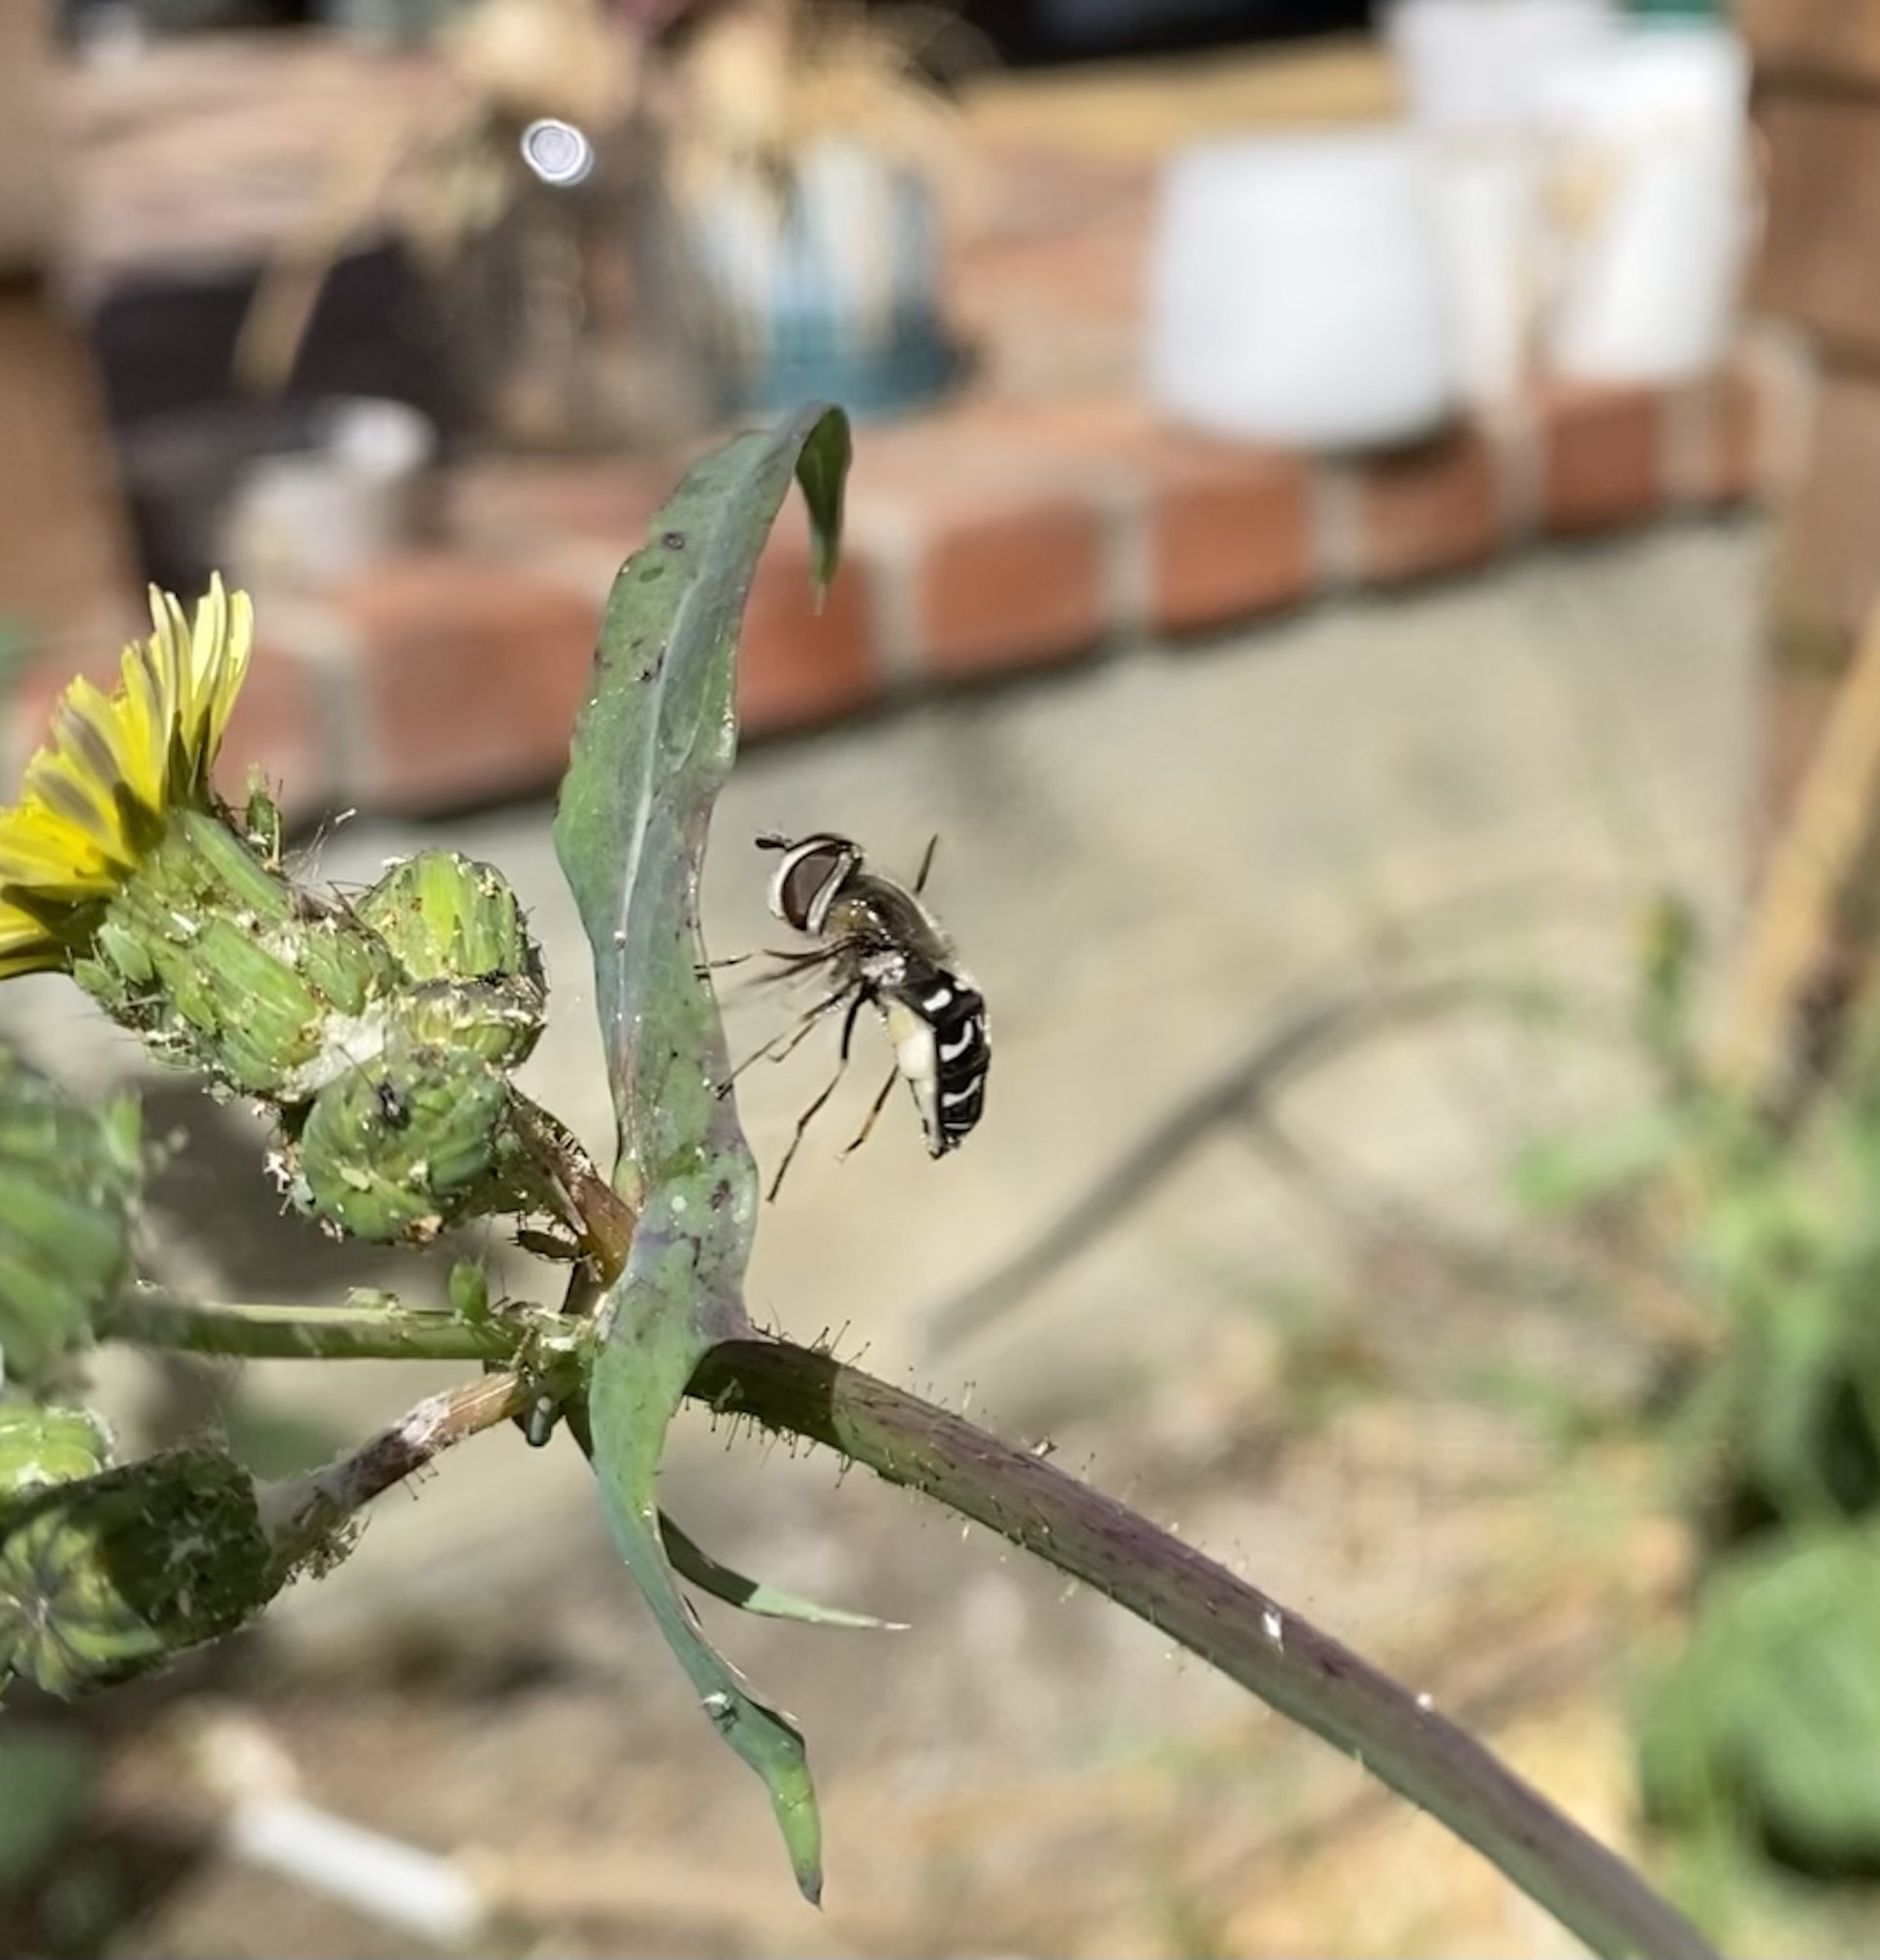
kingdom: Animalia
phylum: Arthropoda
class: Insecta
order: Diptera
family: Syrphidae
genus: Scaeva
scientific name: Scaeva affinis
